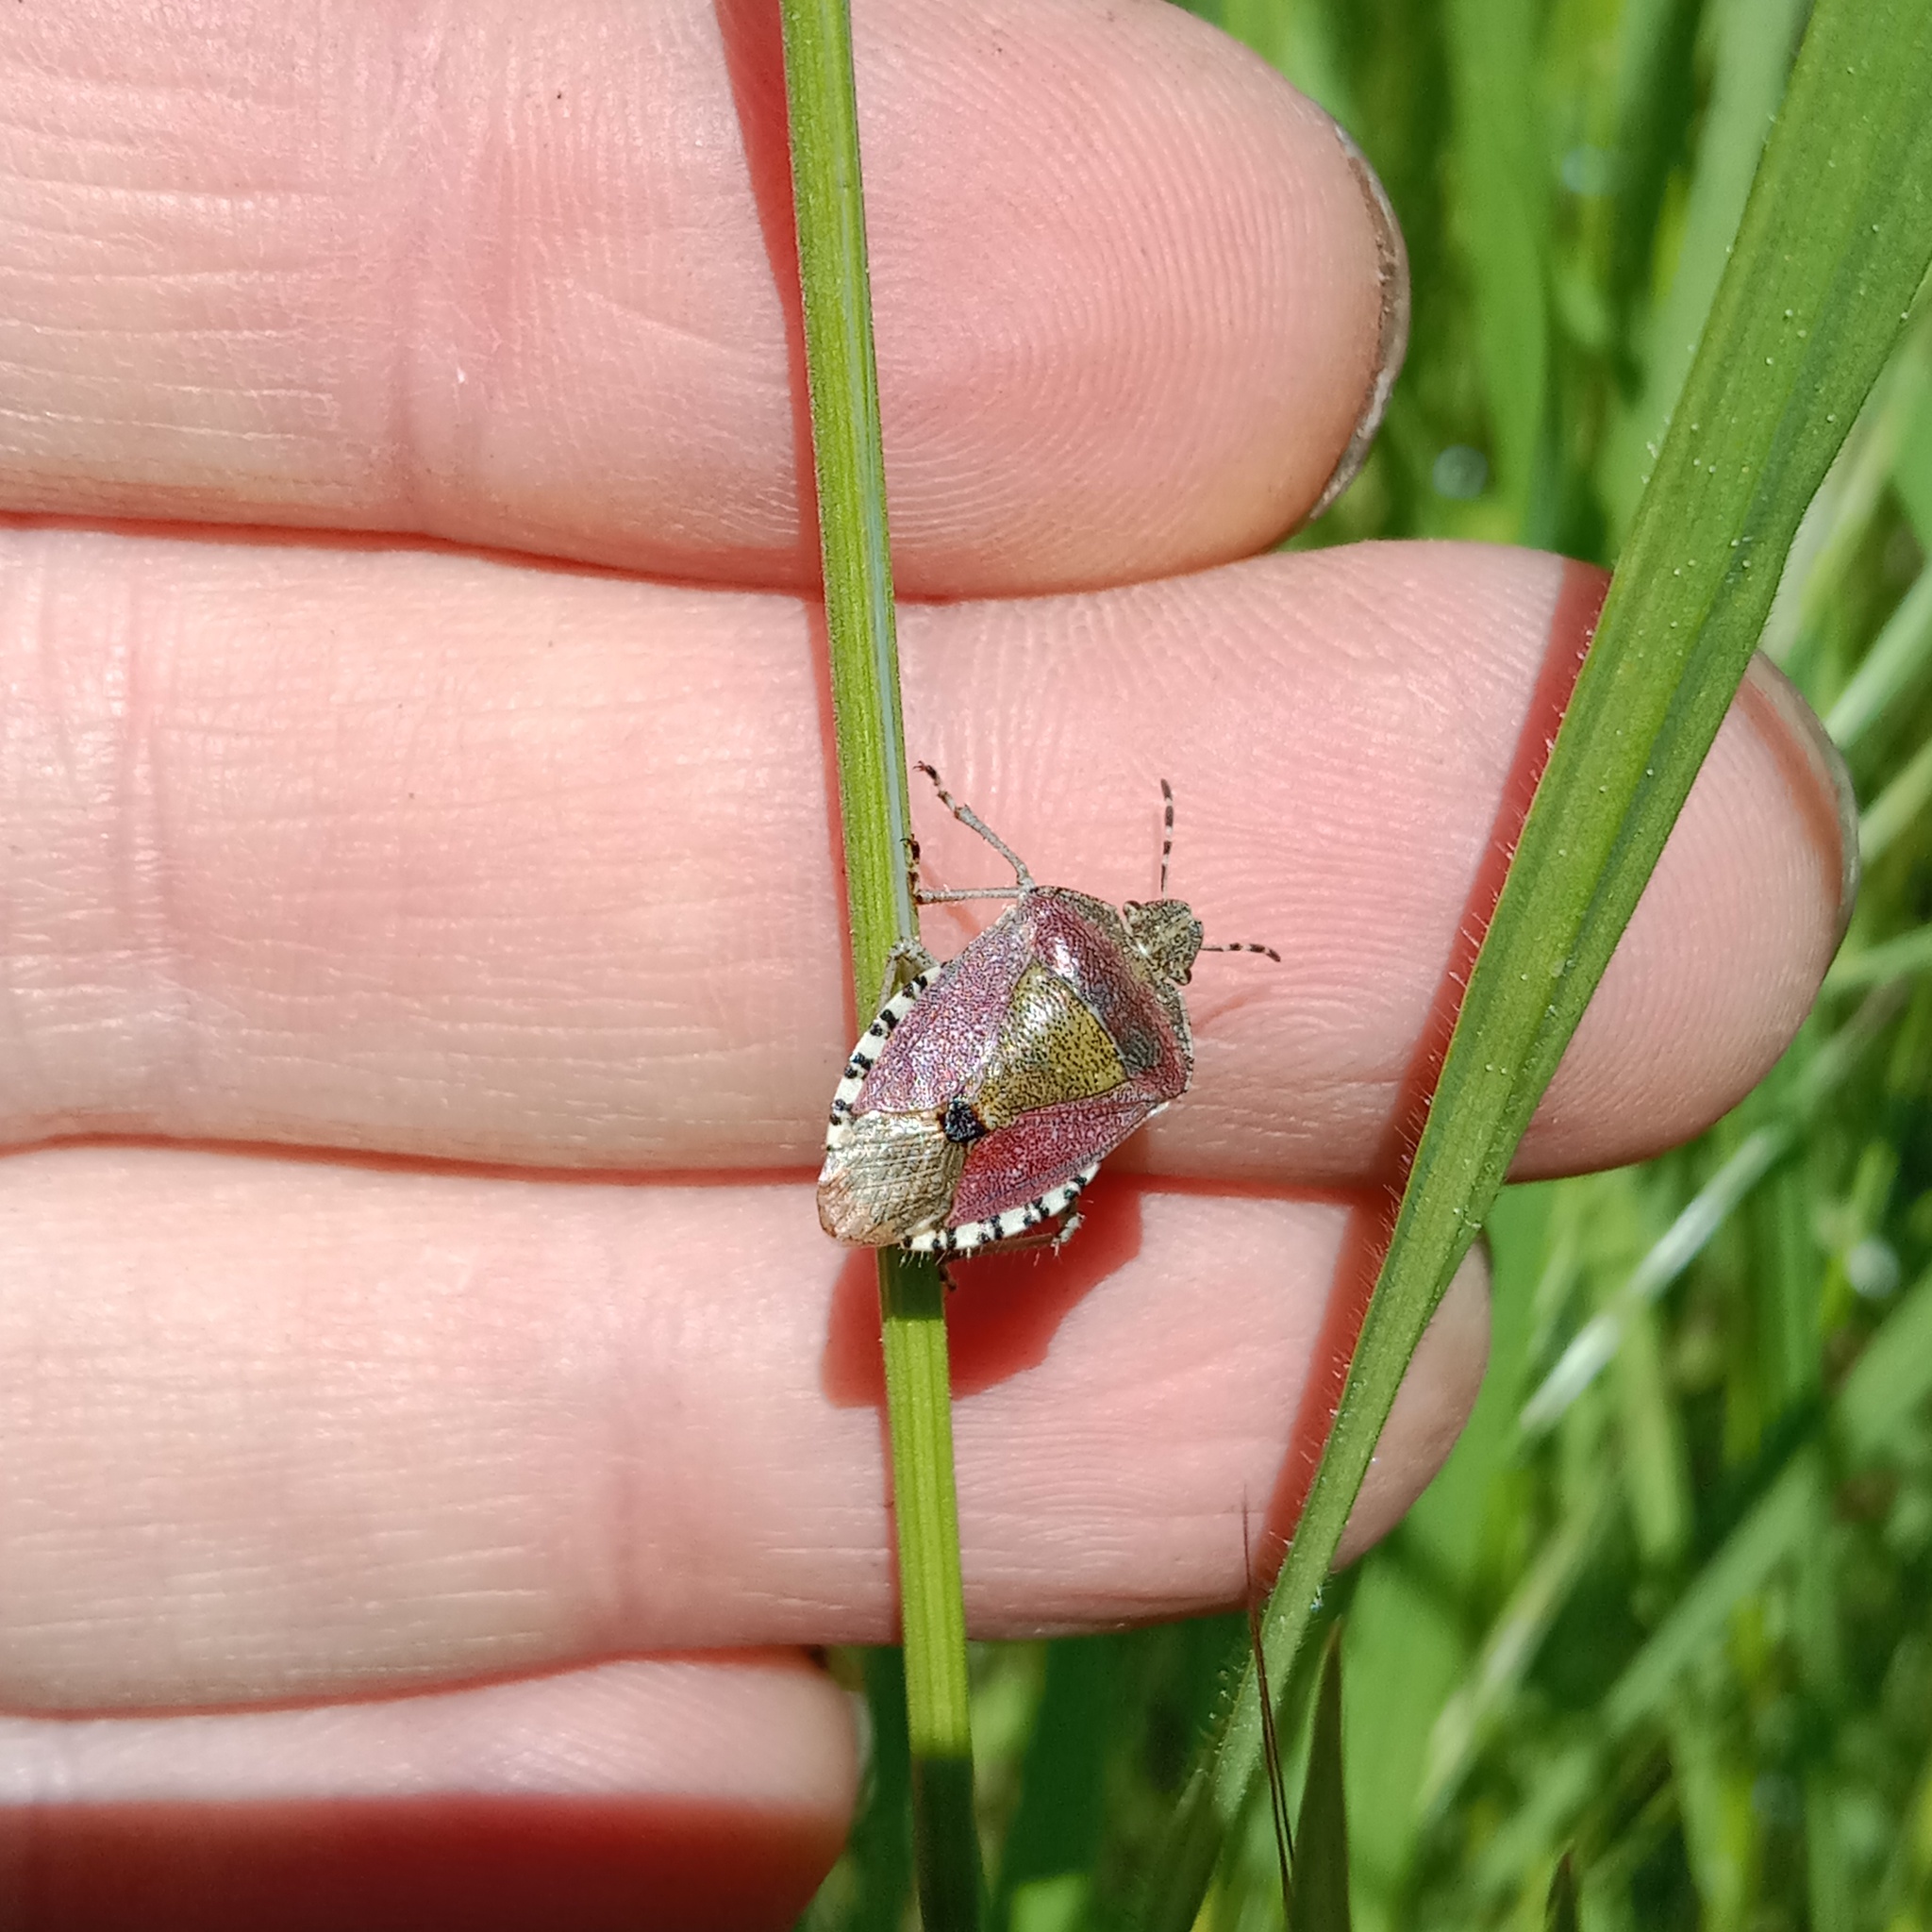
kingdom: Animalia
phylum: Arthropoda
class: Insecta
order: Hemiptera
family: Pentatomidae
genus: Dolycoris
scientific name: Dolycoris baccarum
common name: Sloe bug
